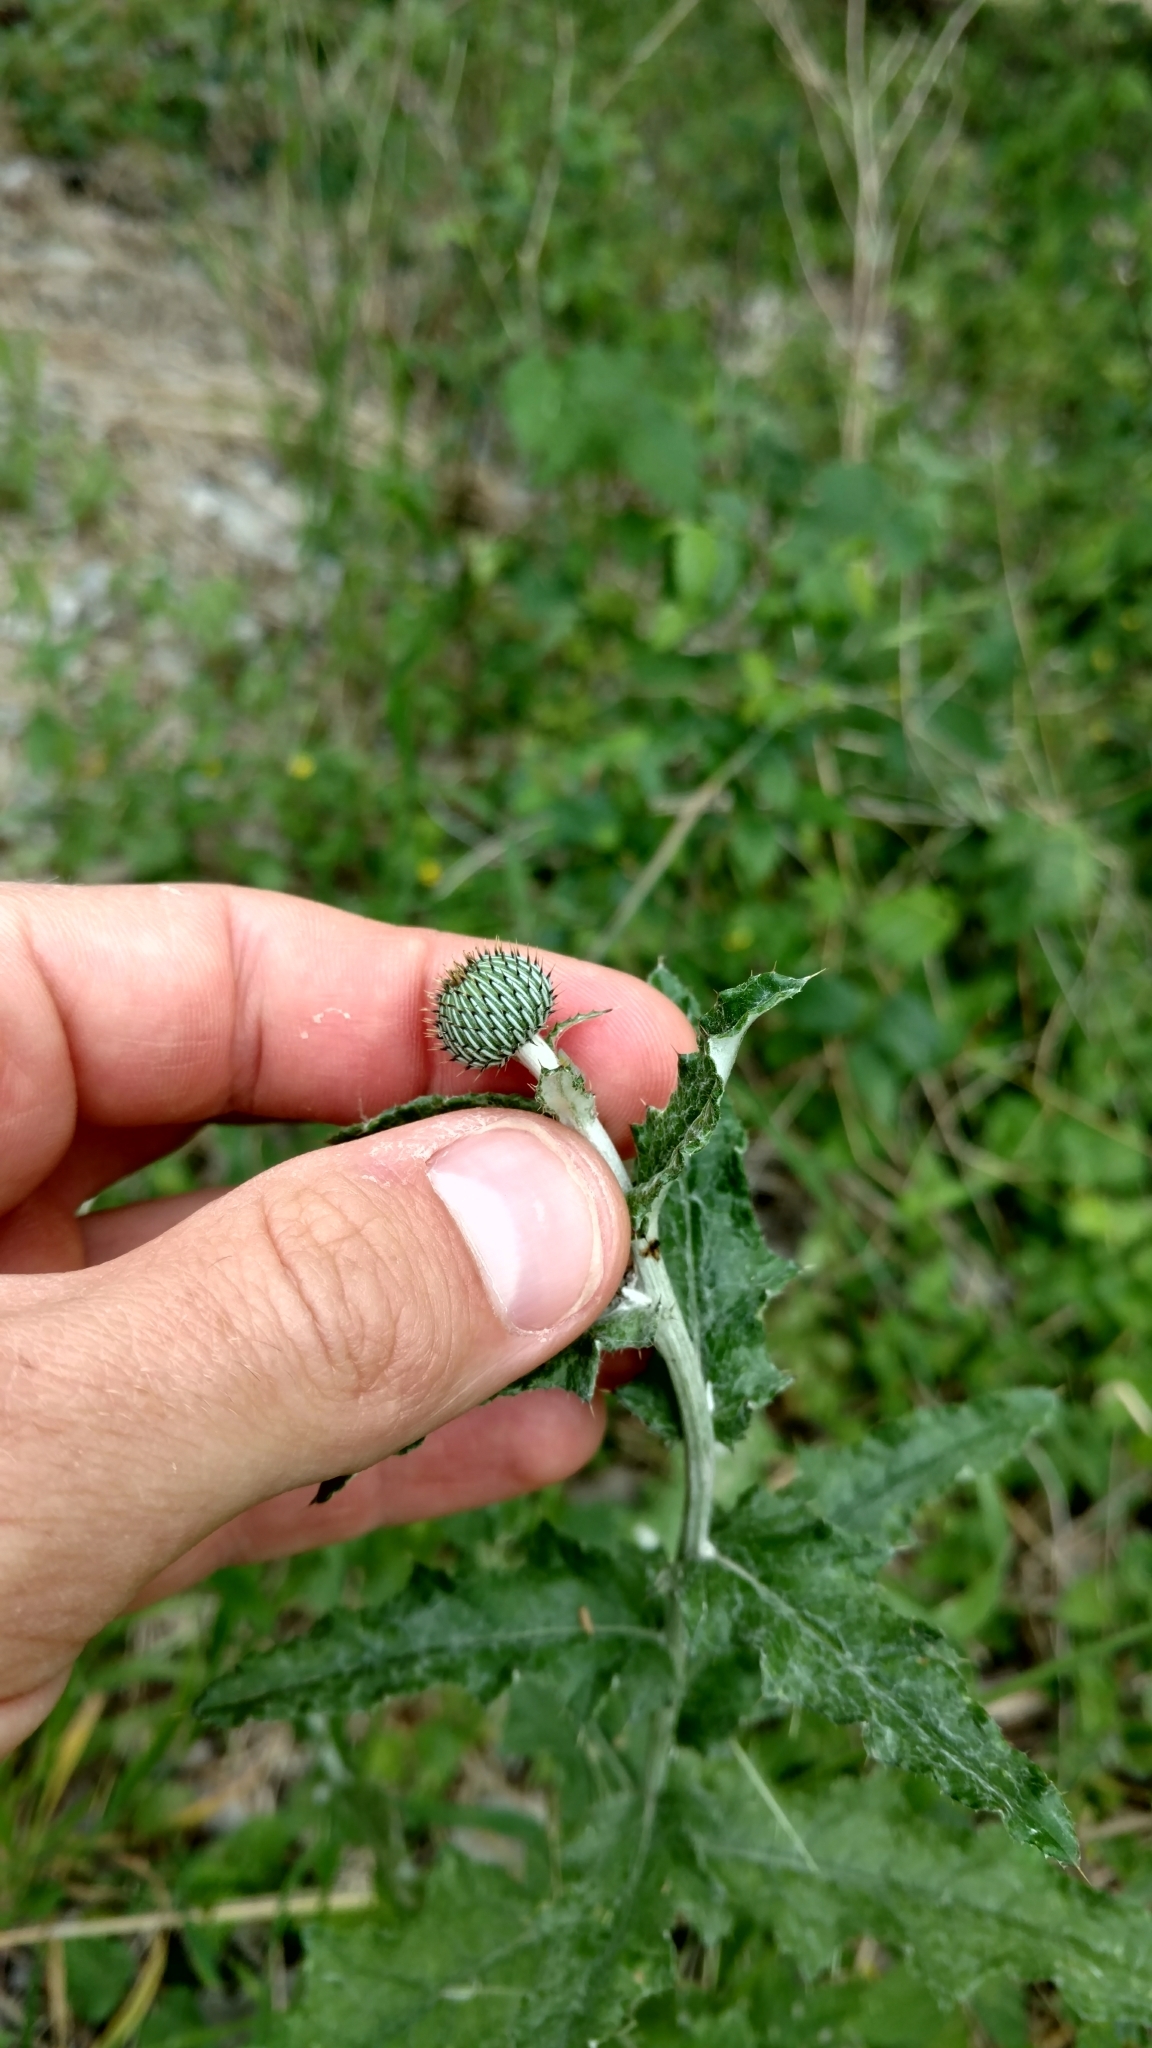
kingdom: Plantae
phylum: Tracheophyta
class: Magnoliopsida
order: Asterales
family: Asteraceae
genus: Cirsium
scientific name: Cirsium texanum
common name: Texas purple thistle
